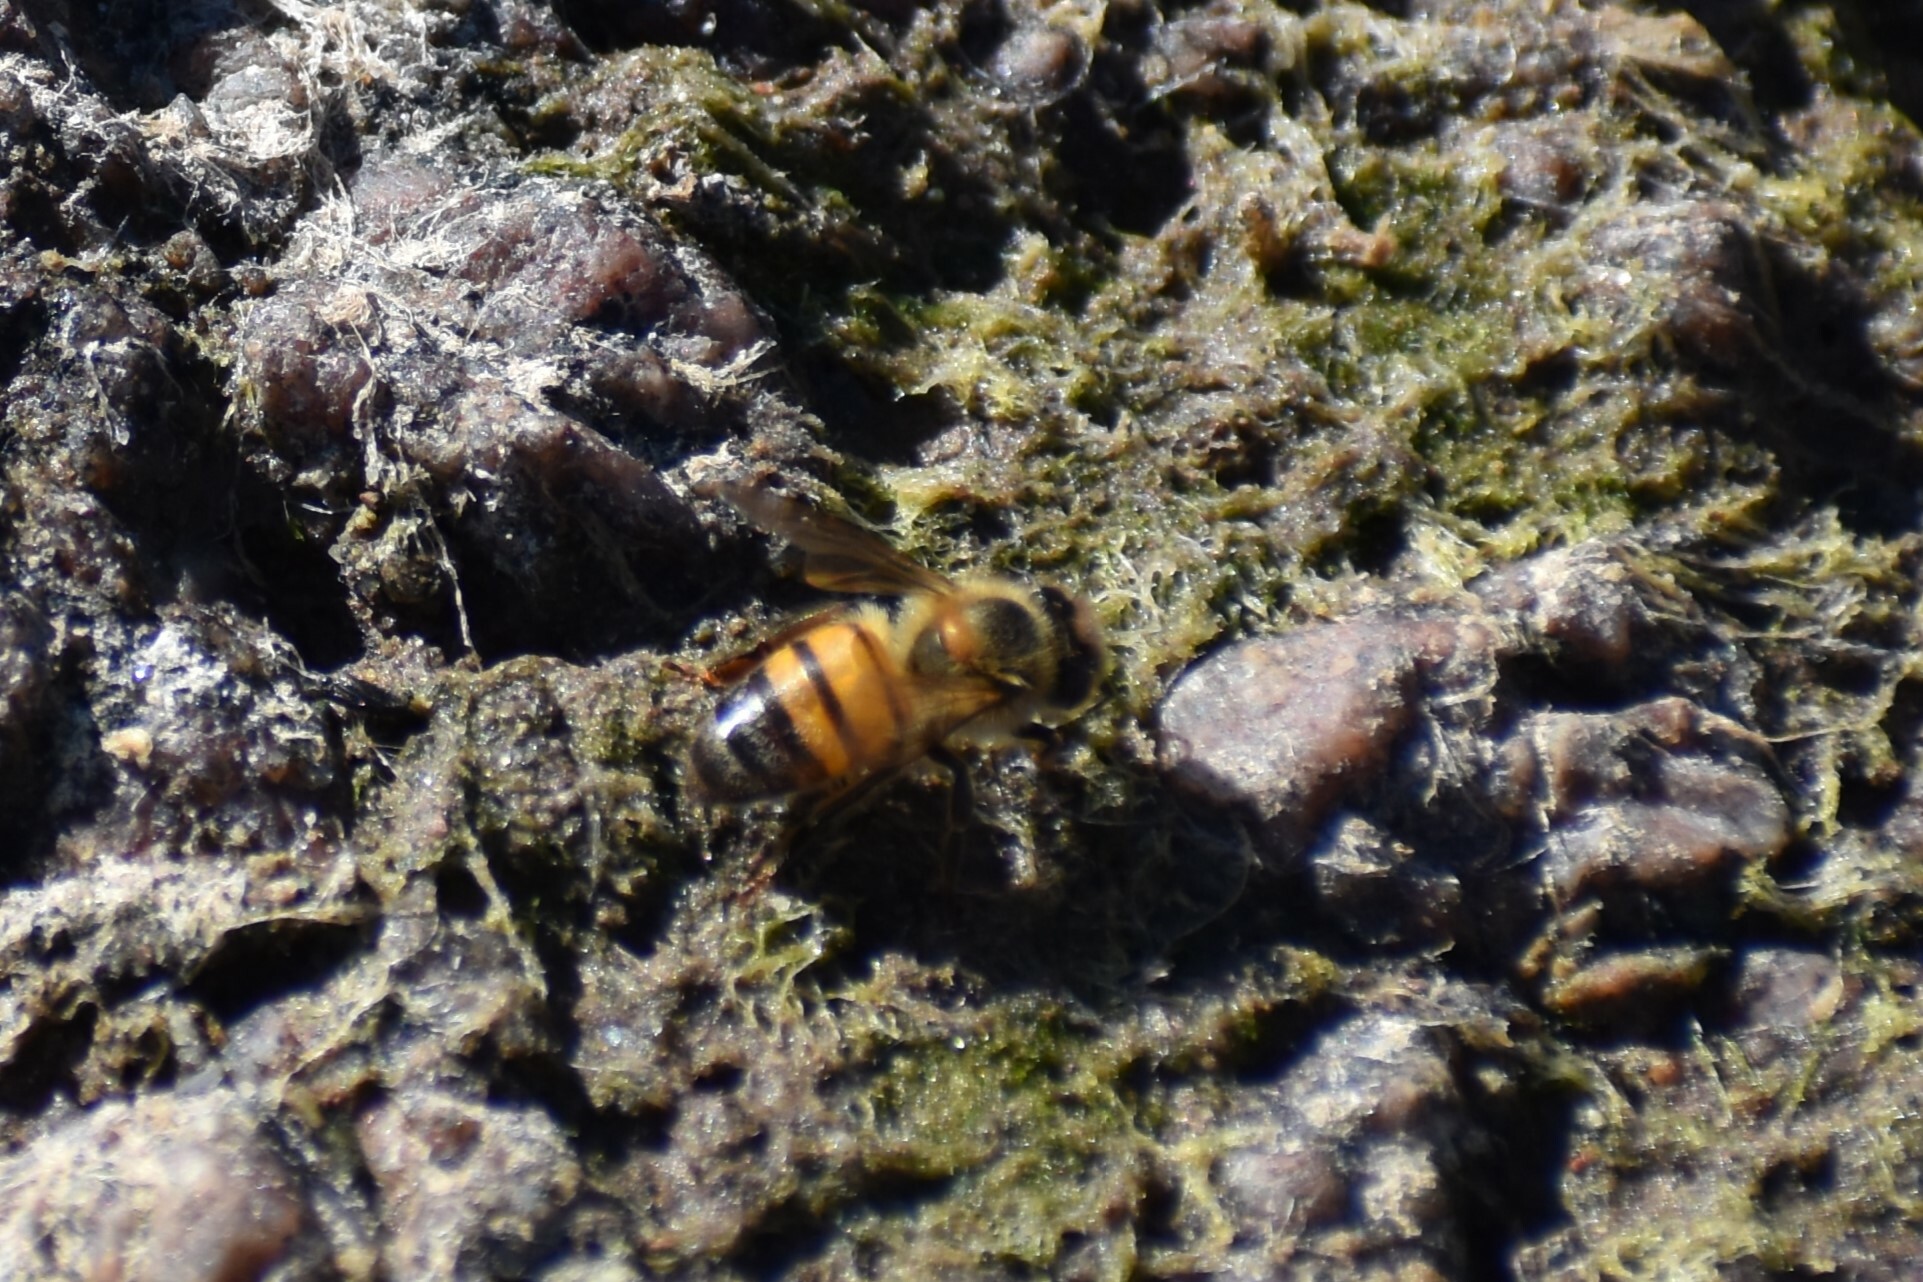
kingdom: Animalia
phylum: Arthropoda
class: Insecta
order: Hymenoptera
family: Apidae
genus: Apis
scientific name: Apis mellifera
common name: Honey bee
